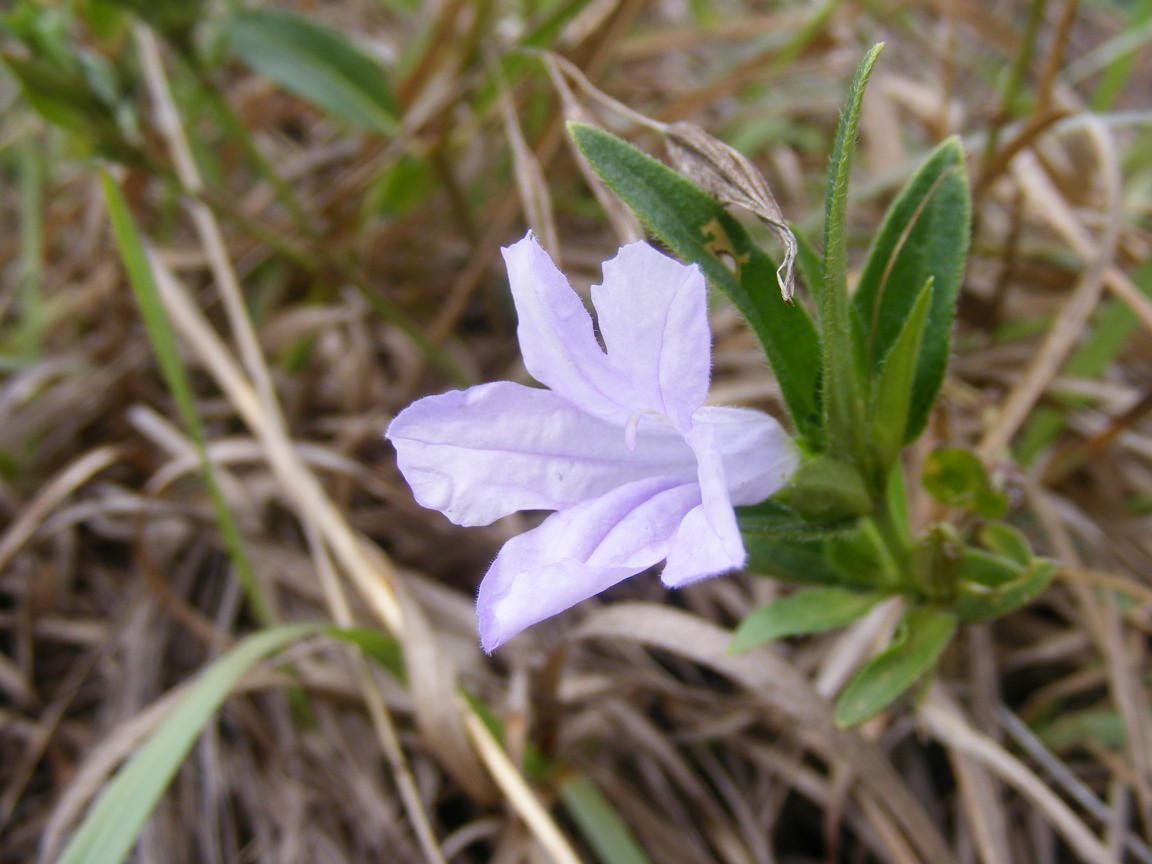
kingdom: Plantae
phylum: Tracheophyta
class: Magnoliopsida
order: Lamiales
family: Acanthaceae
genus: Ruellia
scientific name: Ruellia cordata
